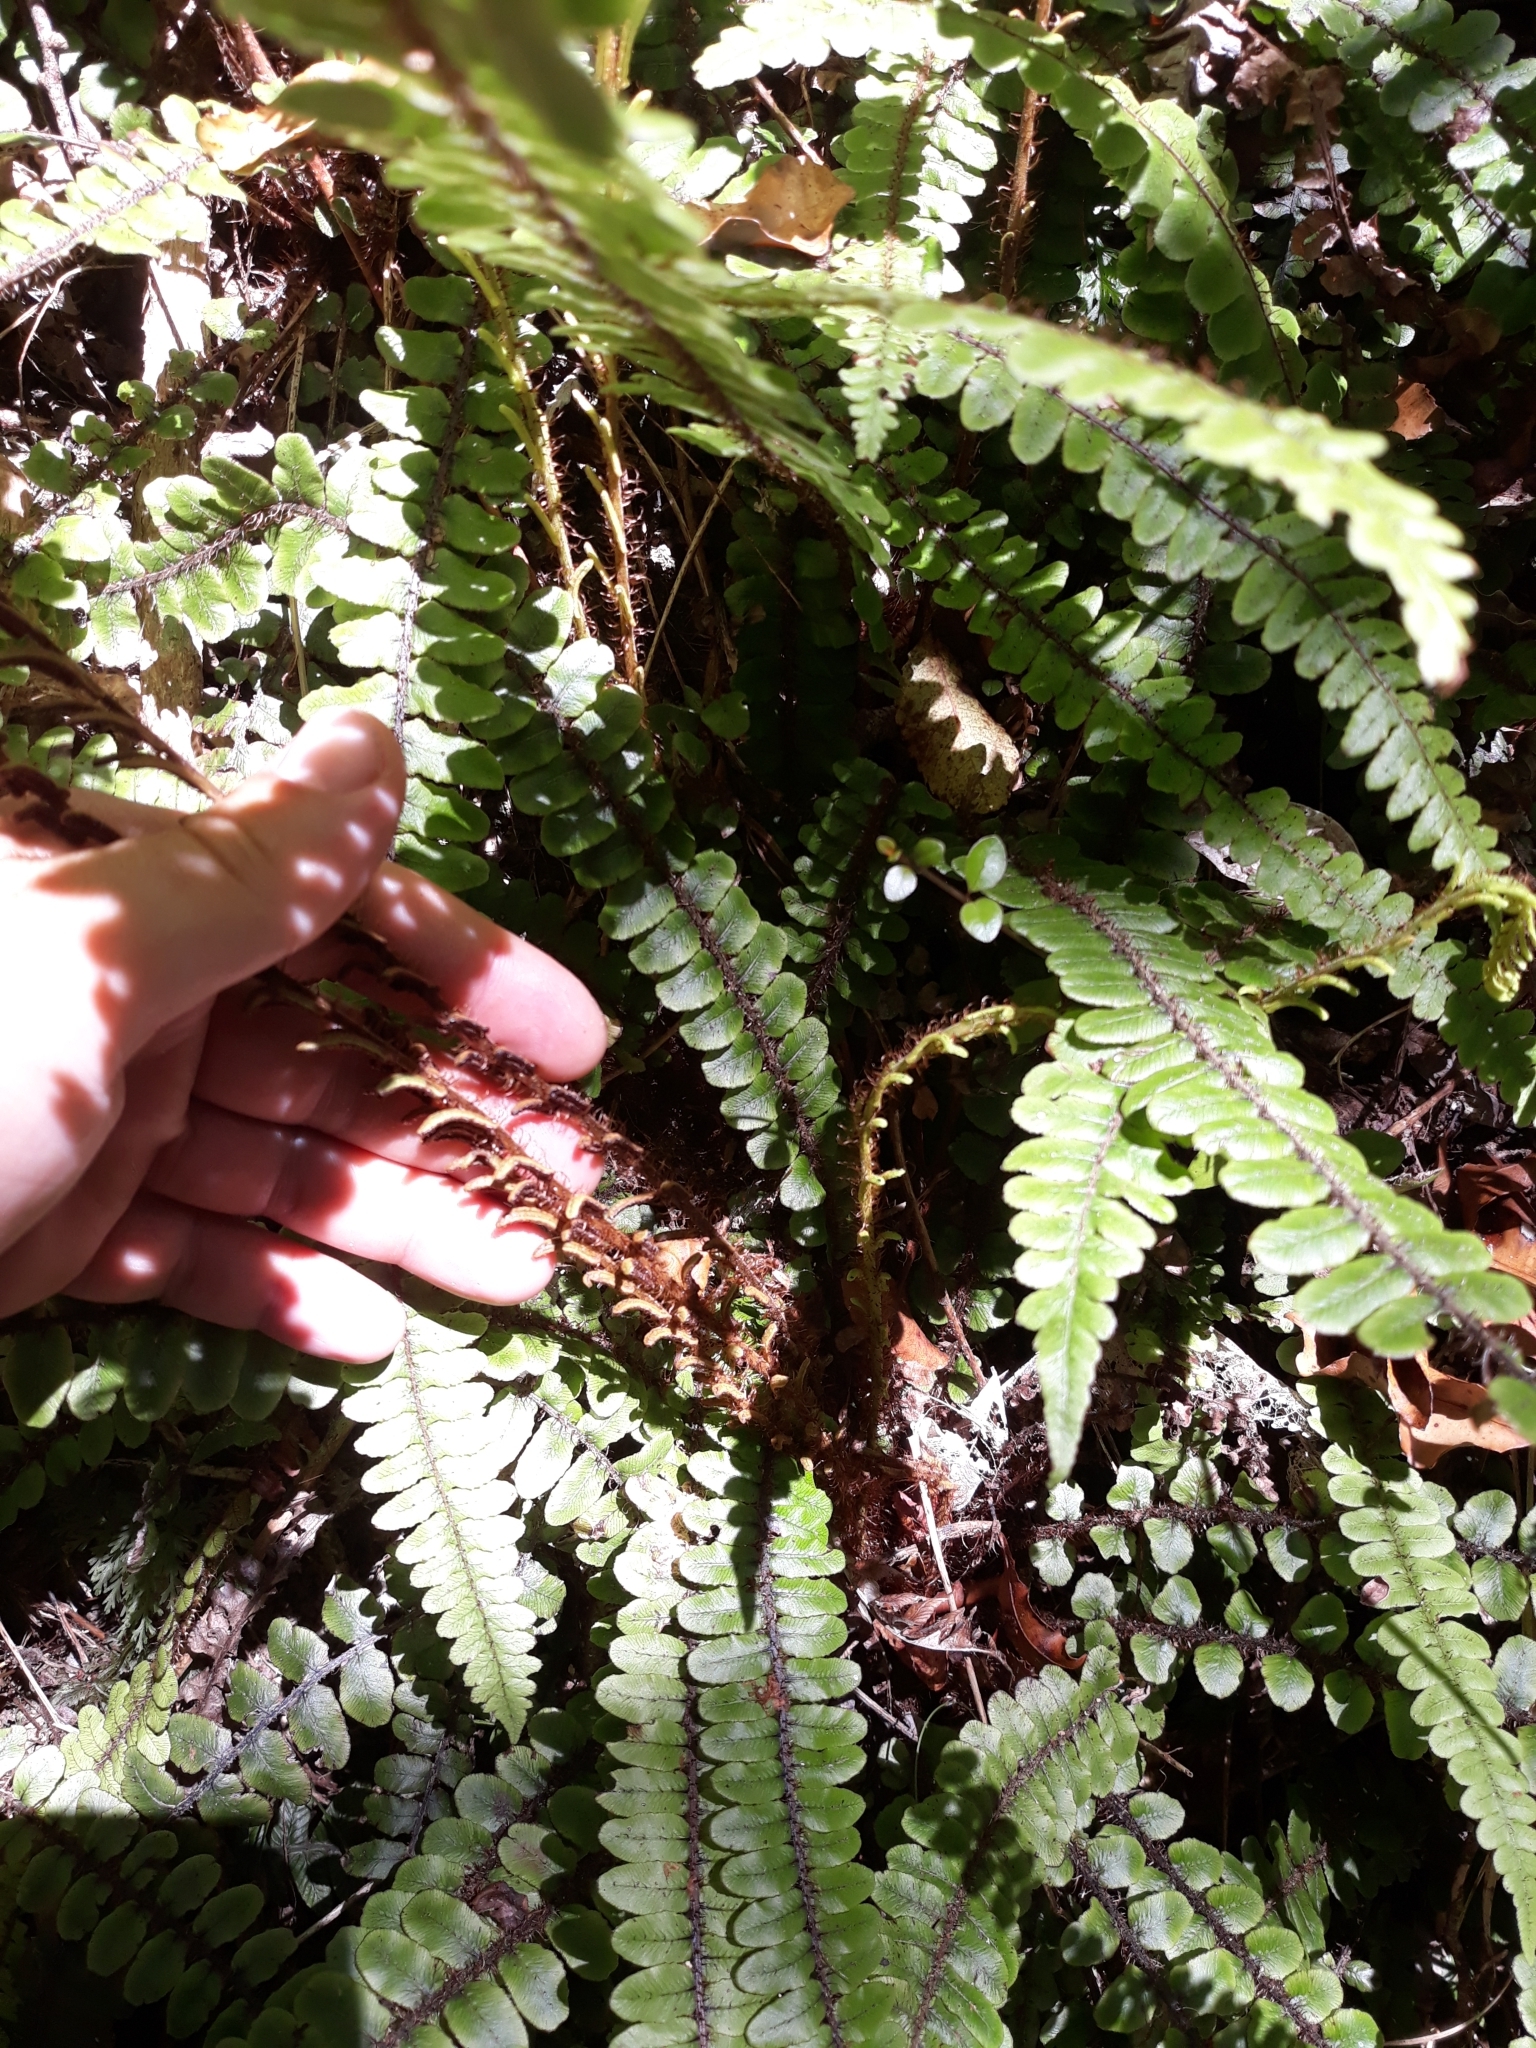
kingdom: Plantae
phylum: Tracheophyta
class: Polypodiopsida
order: Polypodiales
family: Blechnaceae
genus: Cranfillia
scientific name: Cranfillia fluviatilis
